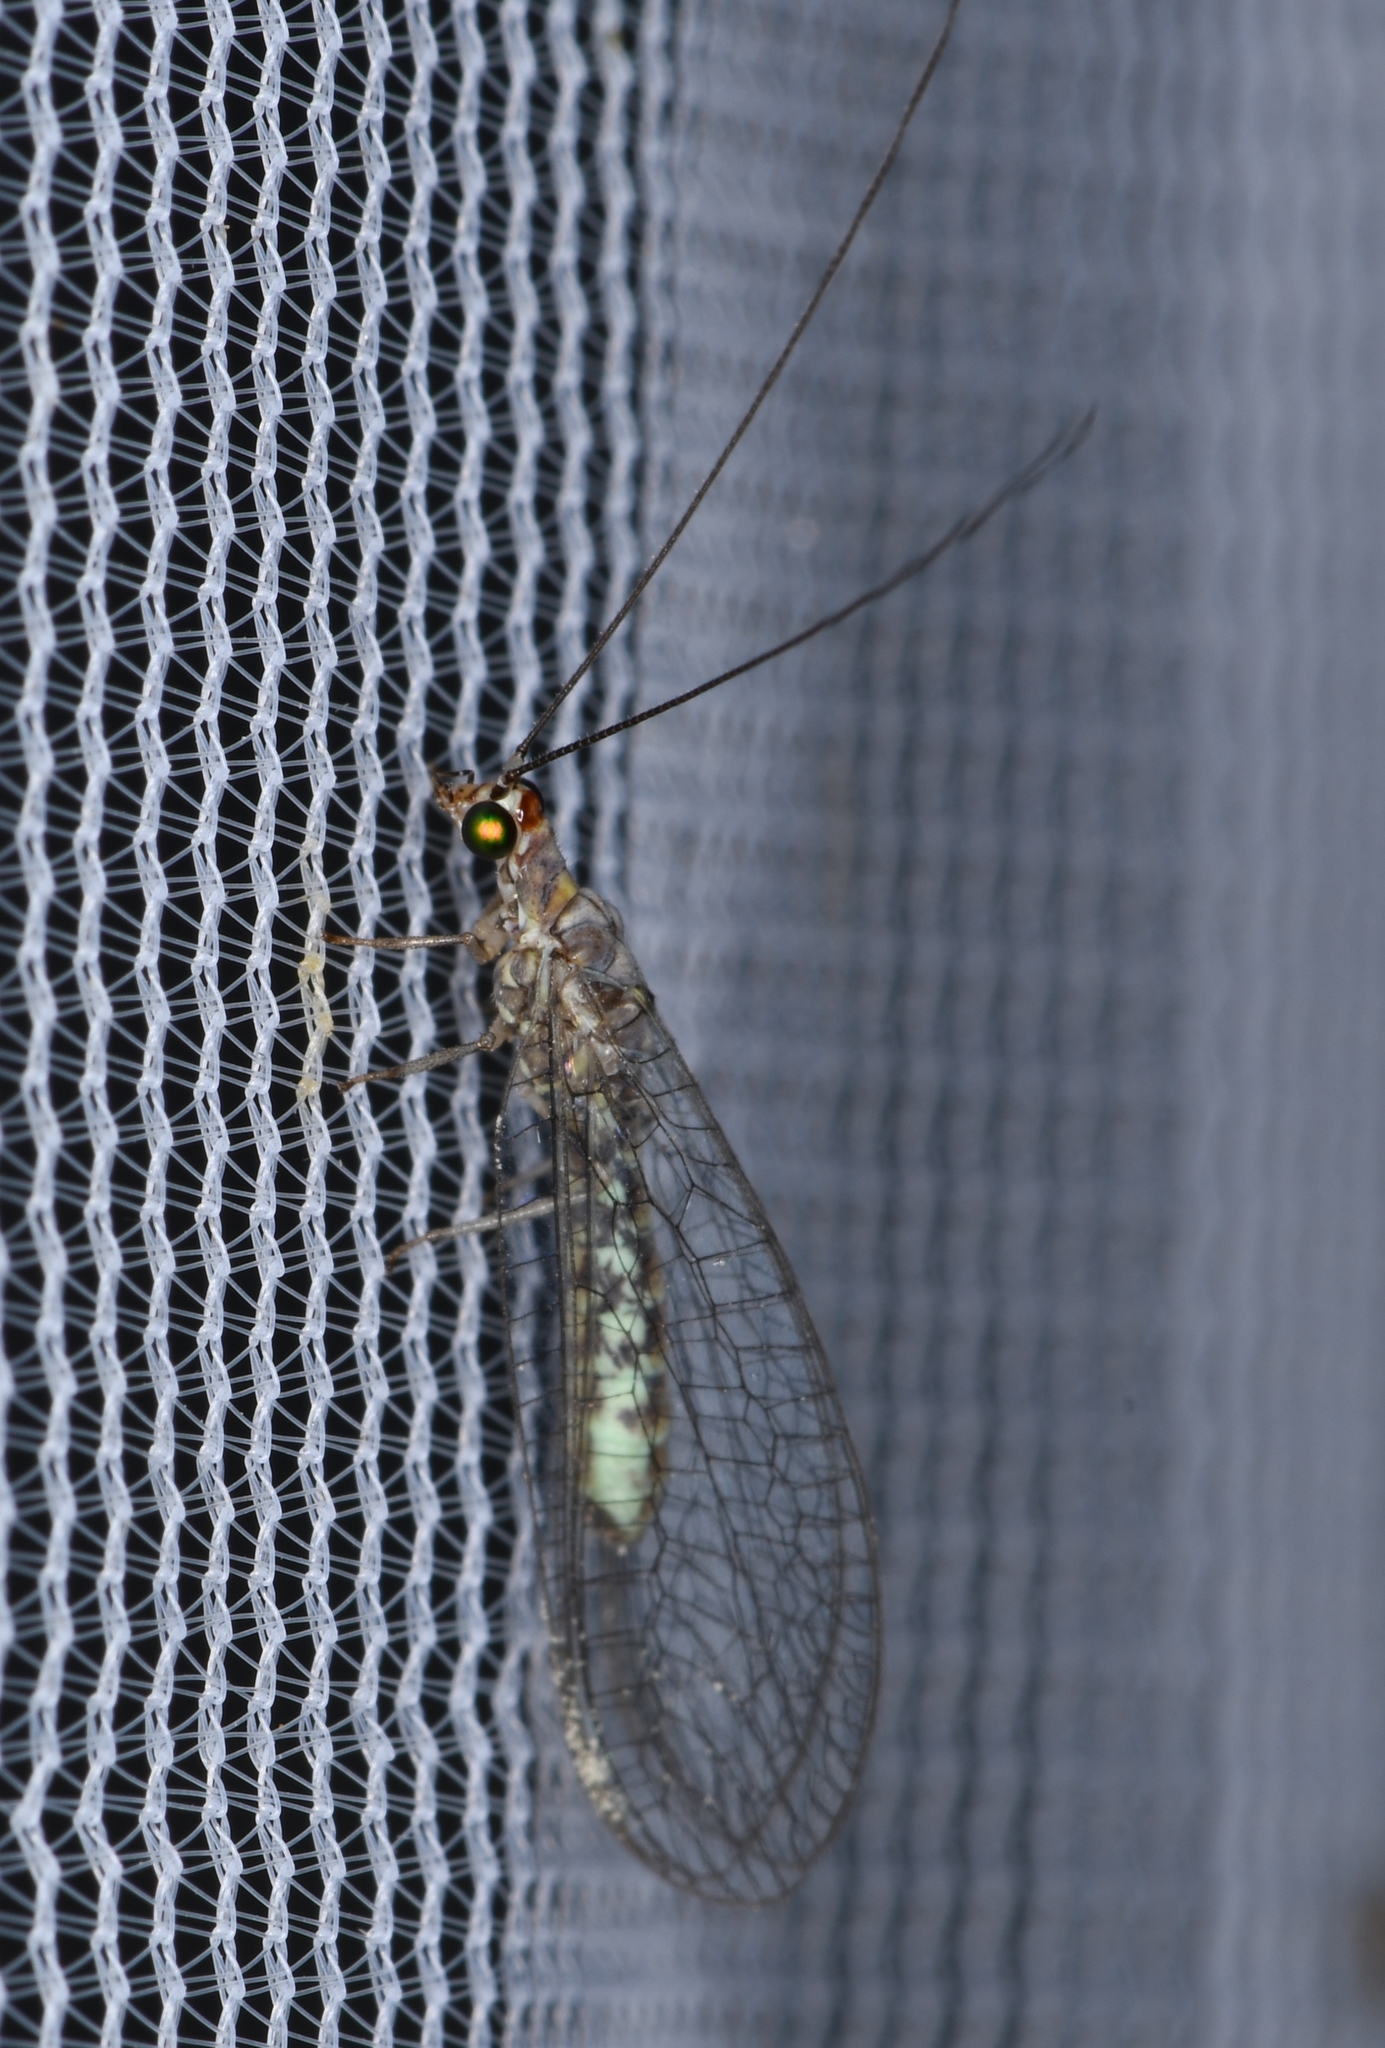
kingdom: Animalia
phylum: Arthropoda
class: Insecta
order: Neuroptera
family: Chrysopidae
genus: Yumachrysa
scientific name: Yumachrysa apache
